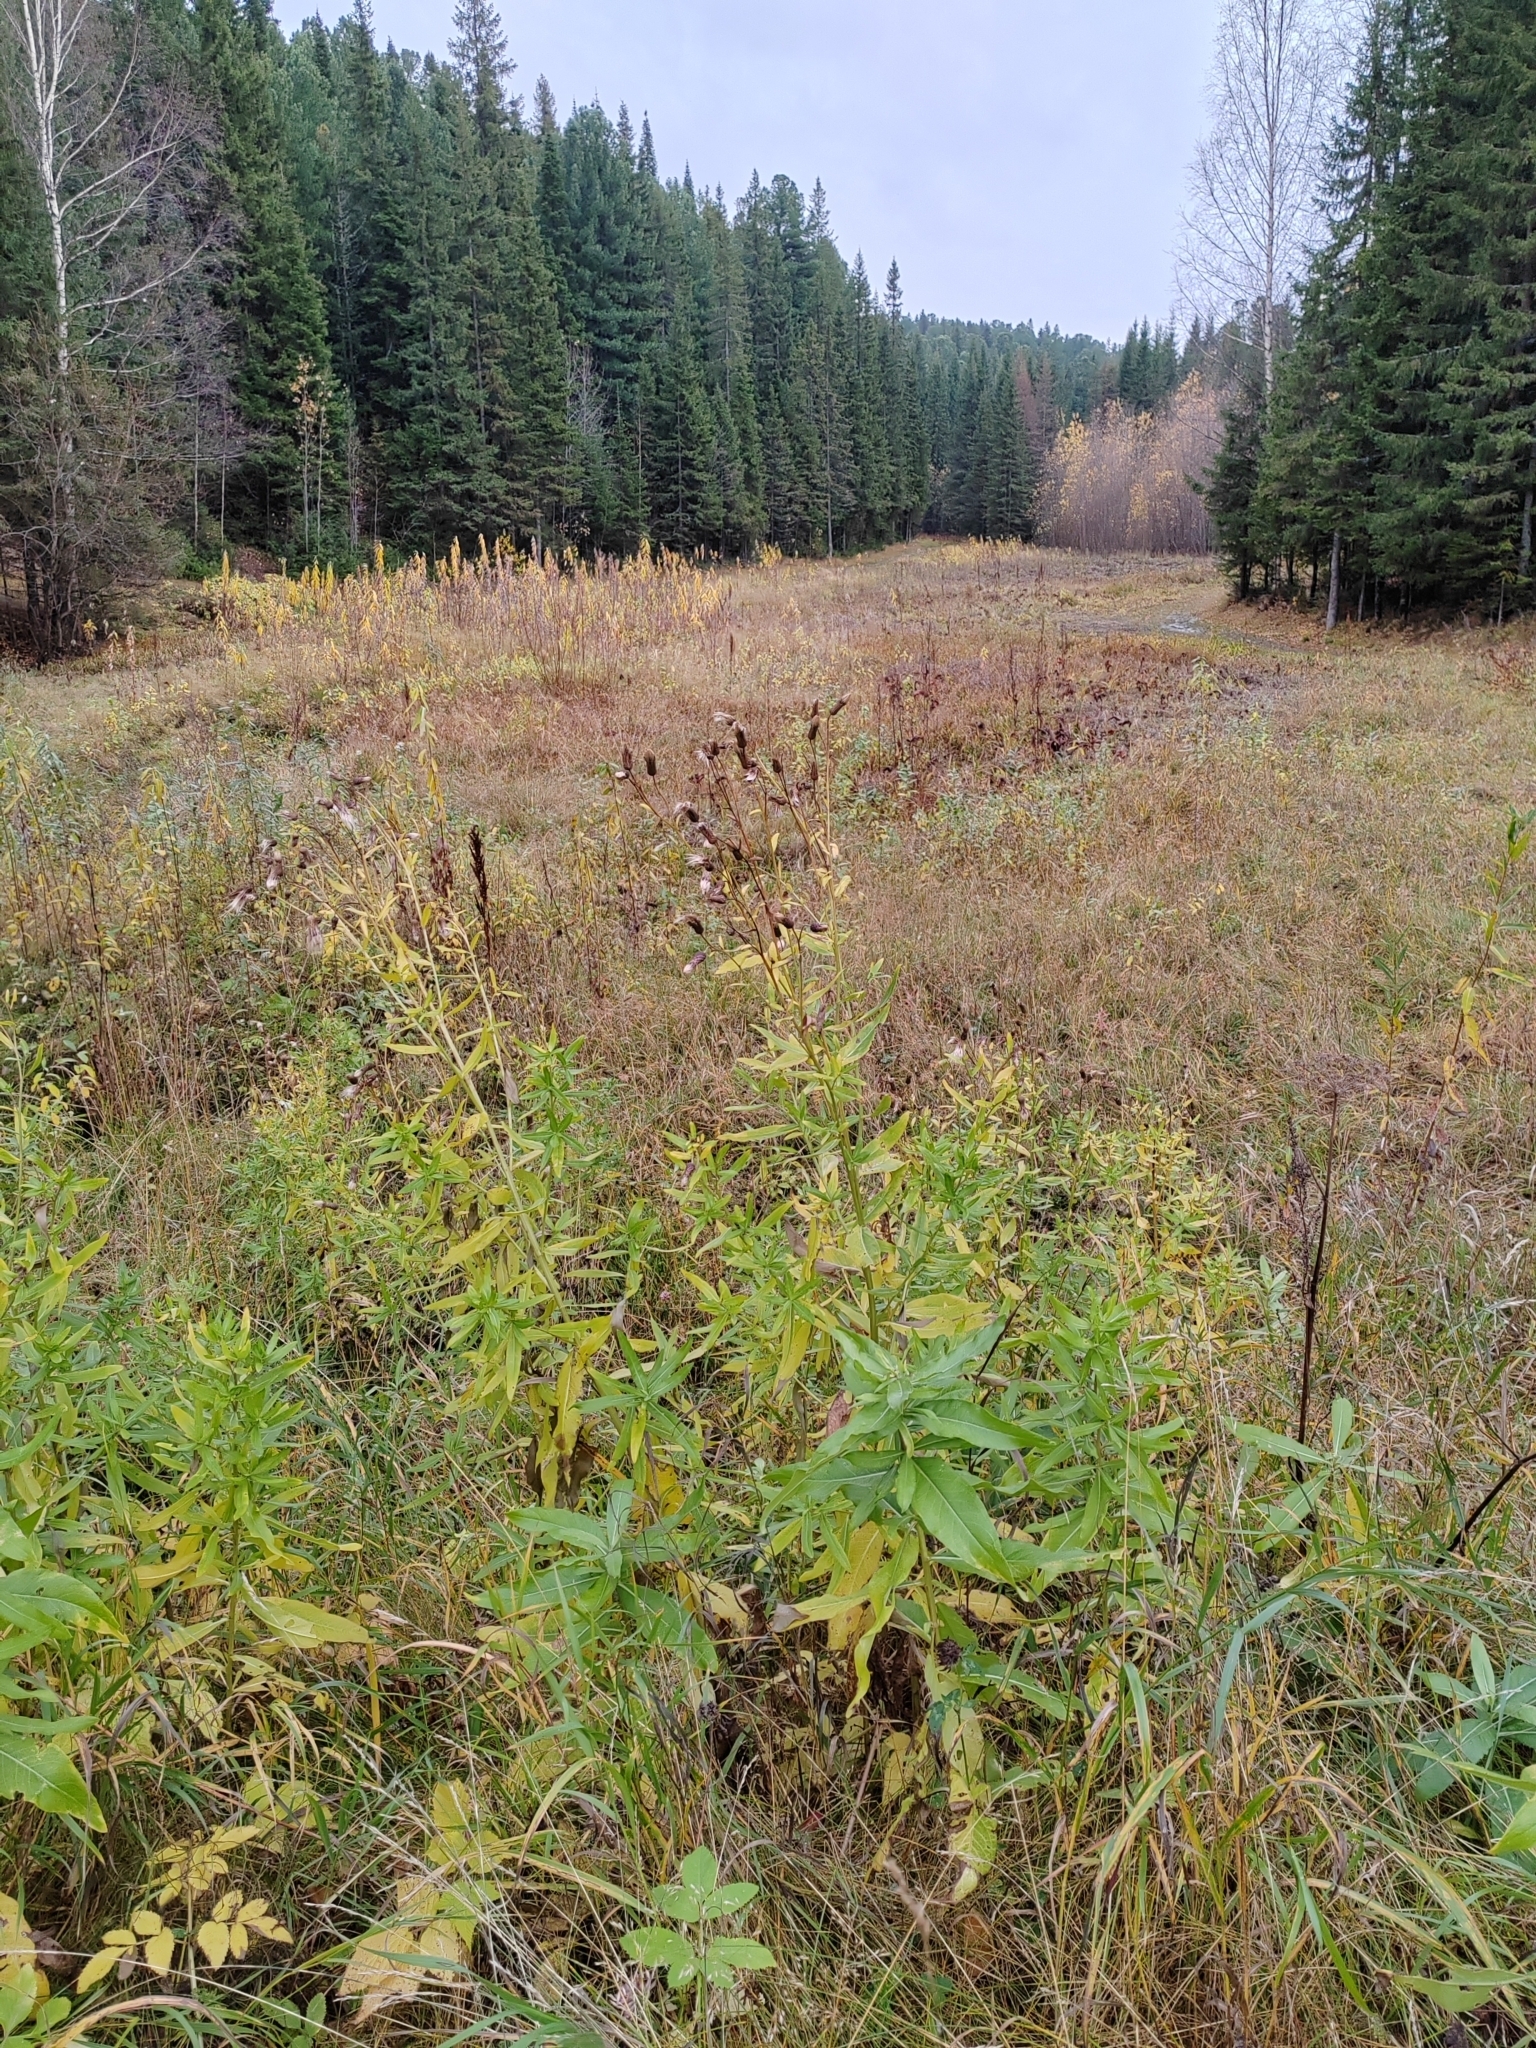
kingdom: Plantae
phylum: Tracheophyta
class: Magnoliopsida
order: Asterales
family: Asteraceae
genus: Cirsium
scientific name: Cirsium arvense
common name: Creeping thistle
